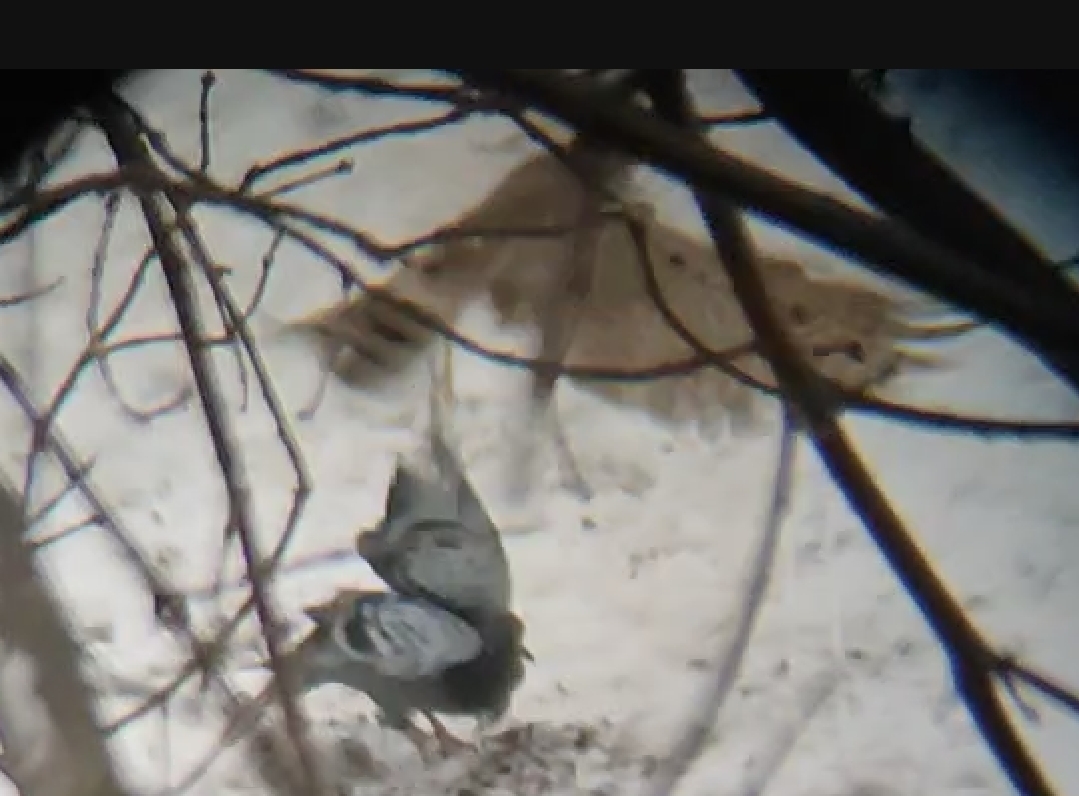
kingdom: Animalia
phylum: Chordata
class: Aves
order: Accipitriformes
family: Accipitridae
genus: Accipiter
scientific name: Accipiter nisus
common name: Eurasian sparrowhawk
